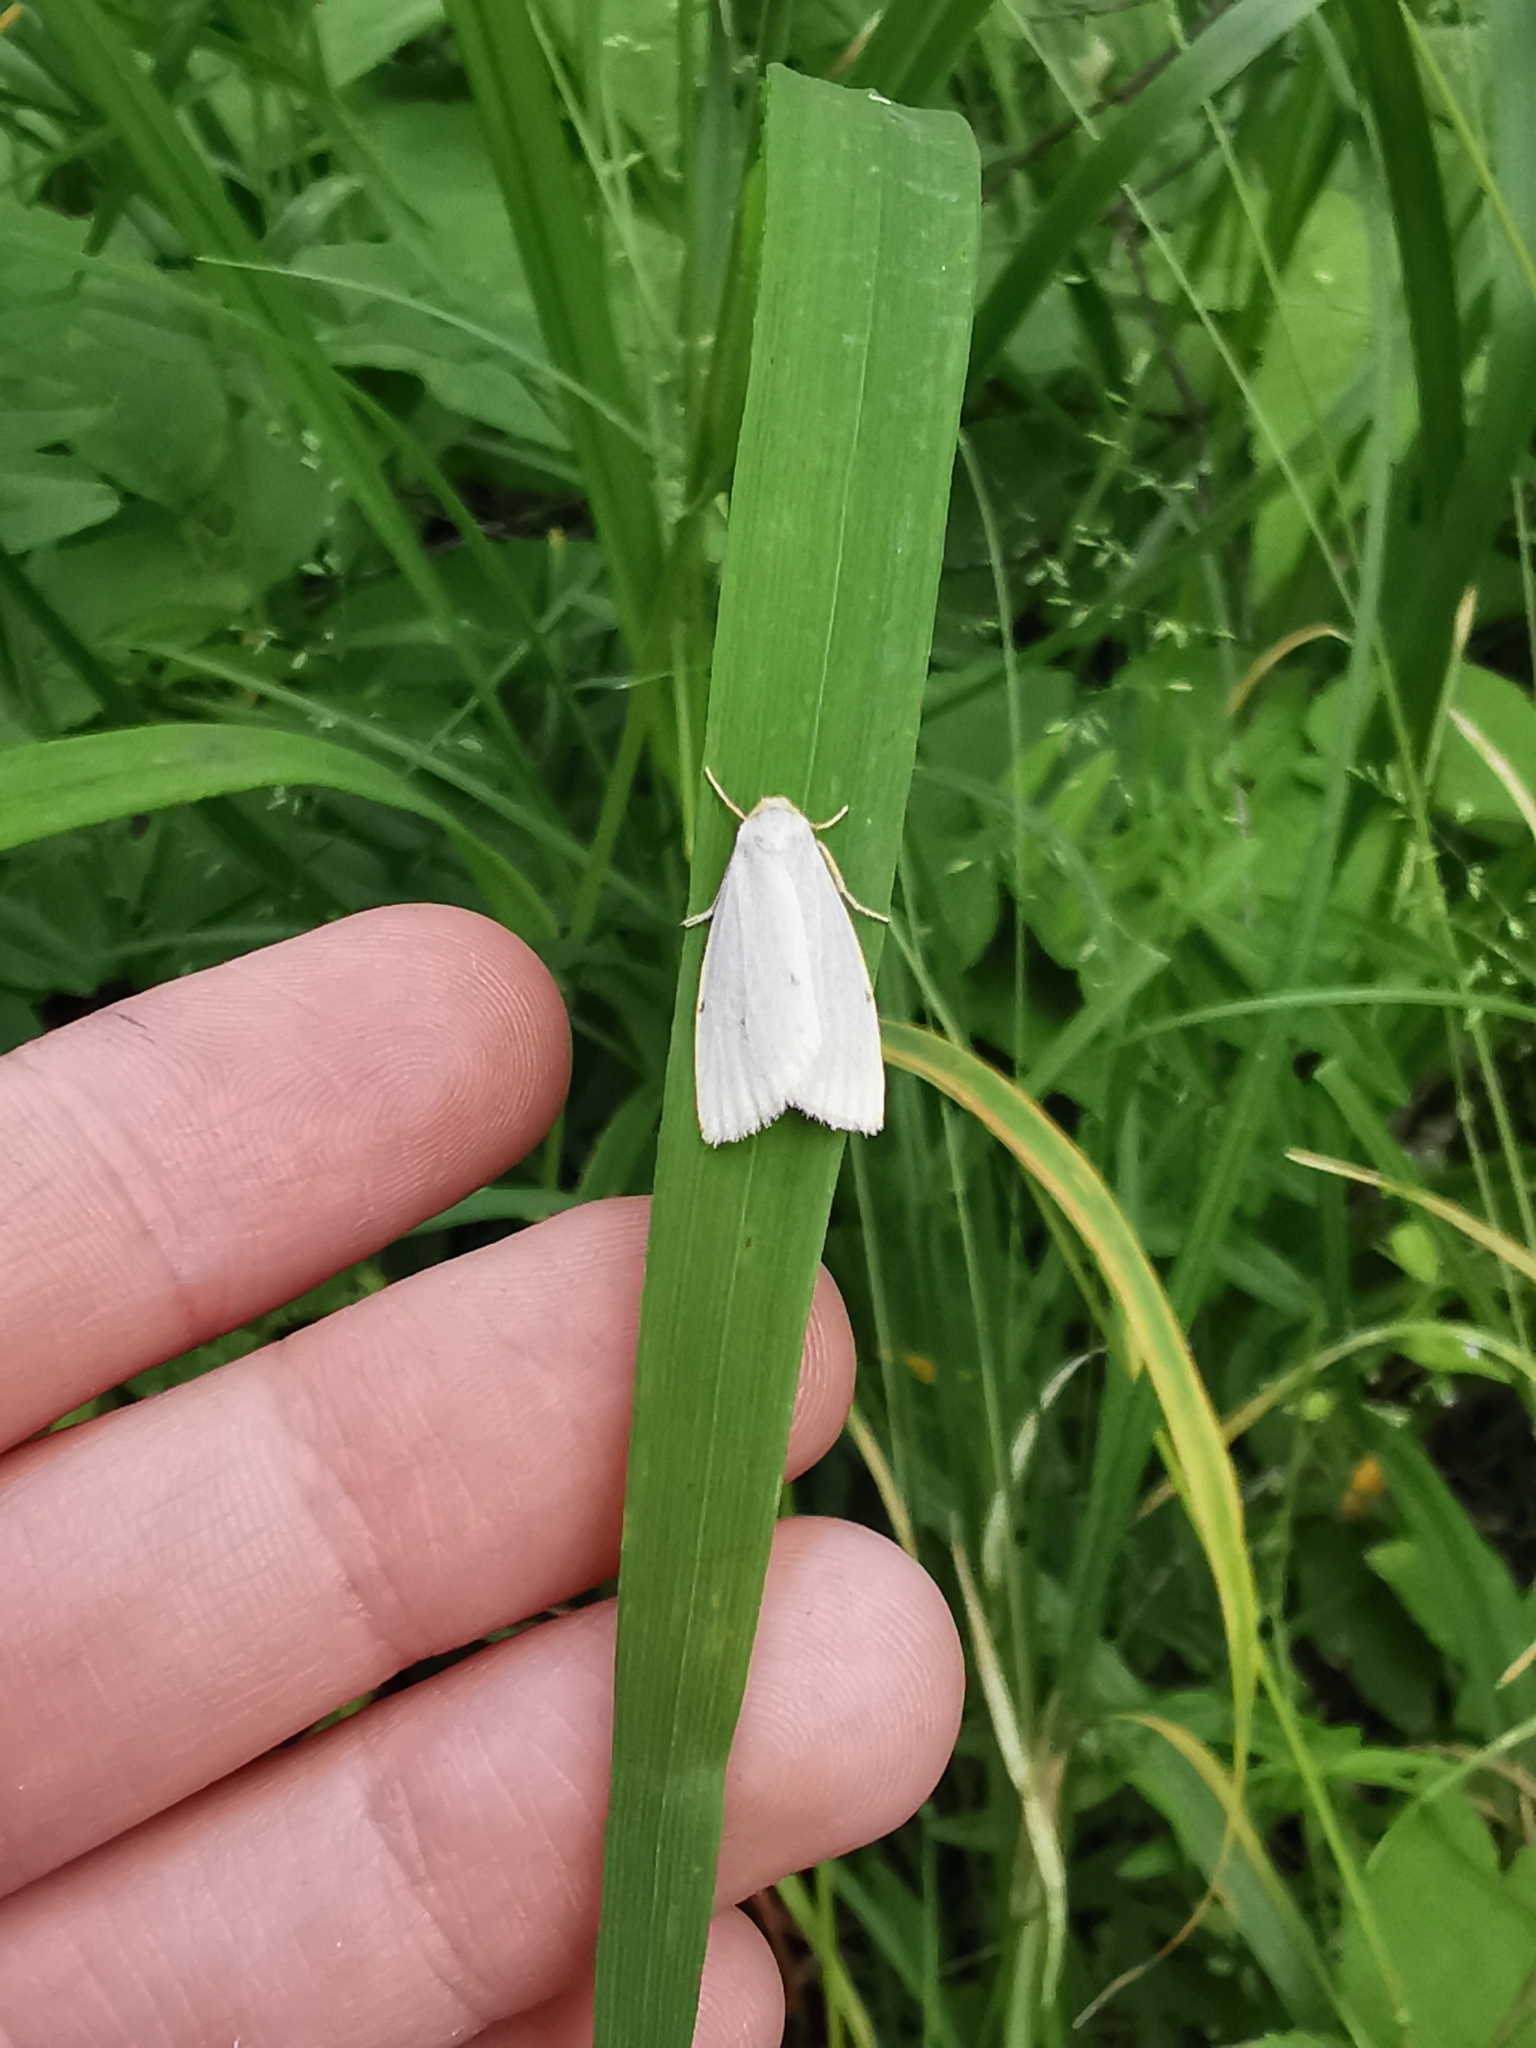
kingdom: Animalia
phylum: Arthropoda
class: Insecta
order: Lepidoptera
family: Erebidae
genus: Cybosia
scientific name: Cybosia mesomella
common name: Four-dotted footman
